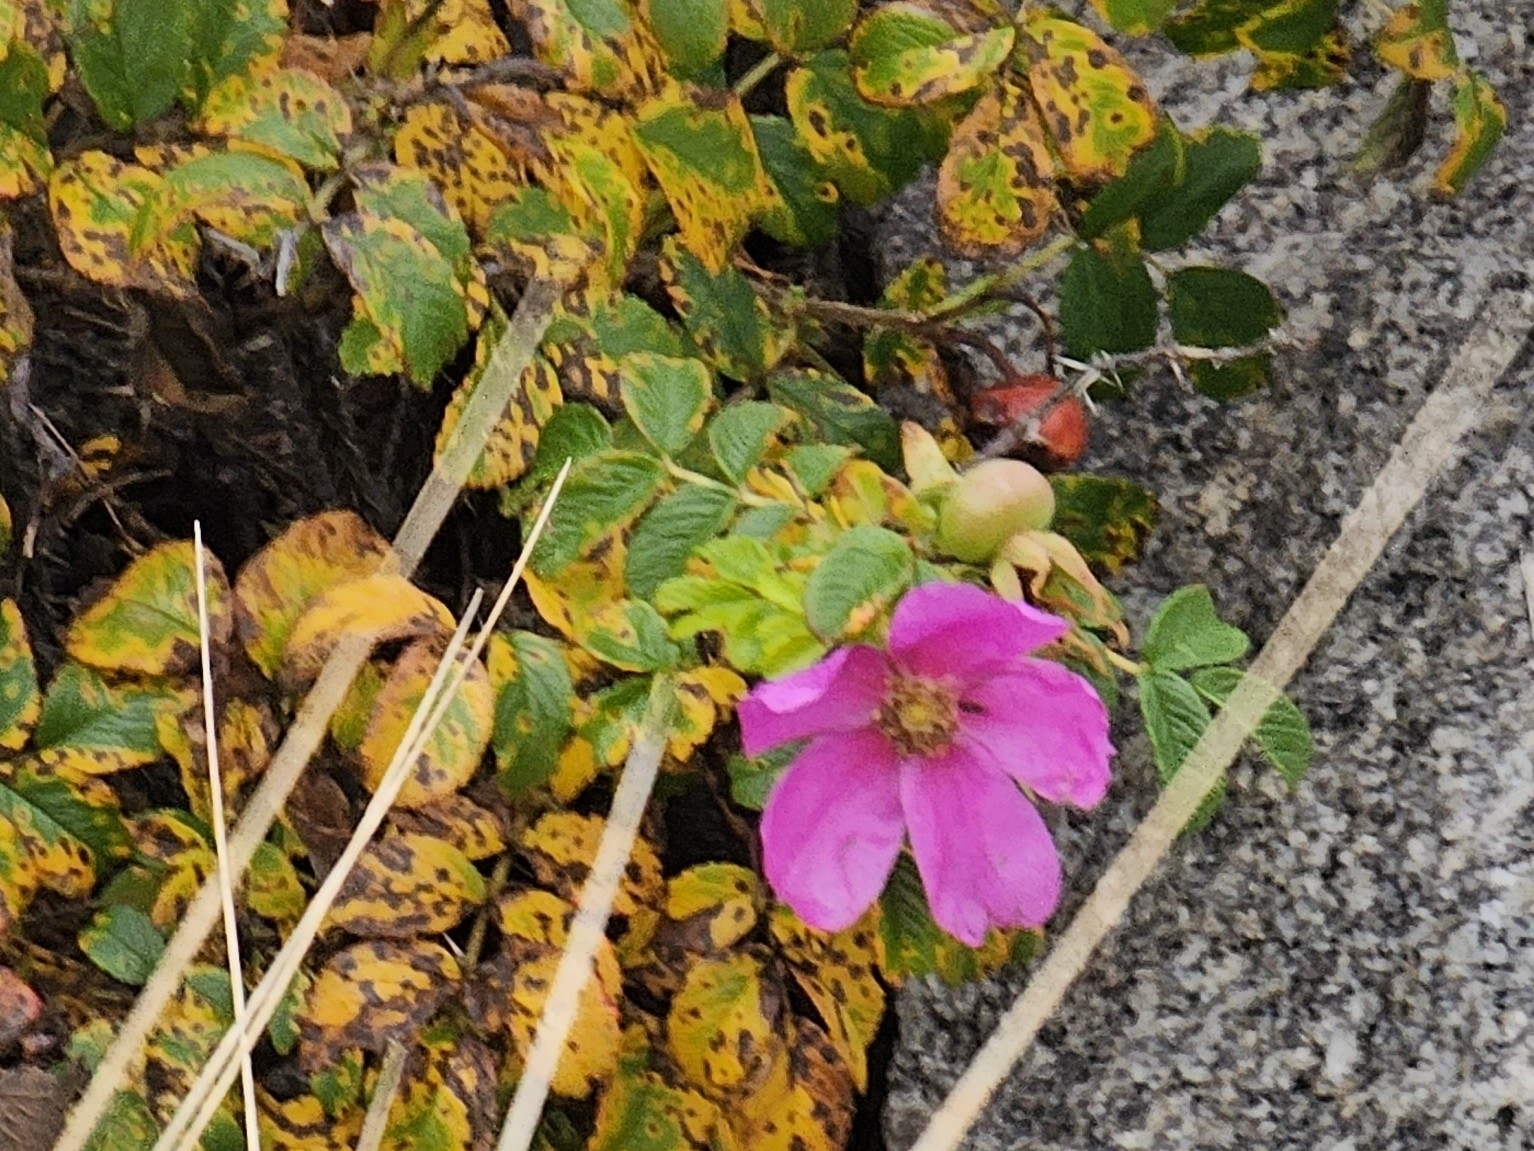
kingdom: Plantae
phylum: Tracheophyta
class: Magnoliopsida
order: Rosales
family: Rosaceae
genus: Rosa
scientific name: Rosa rugosa
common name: Japanese rose
